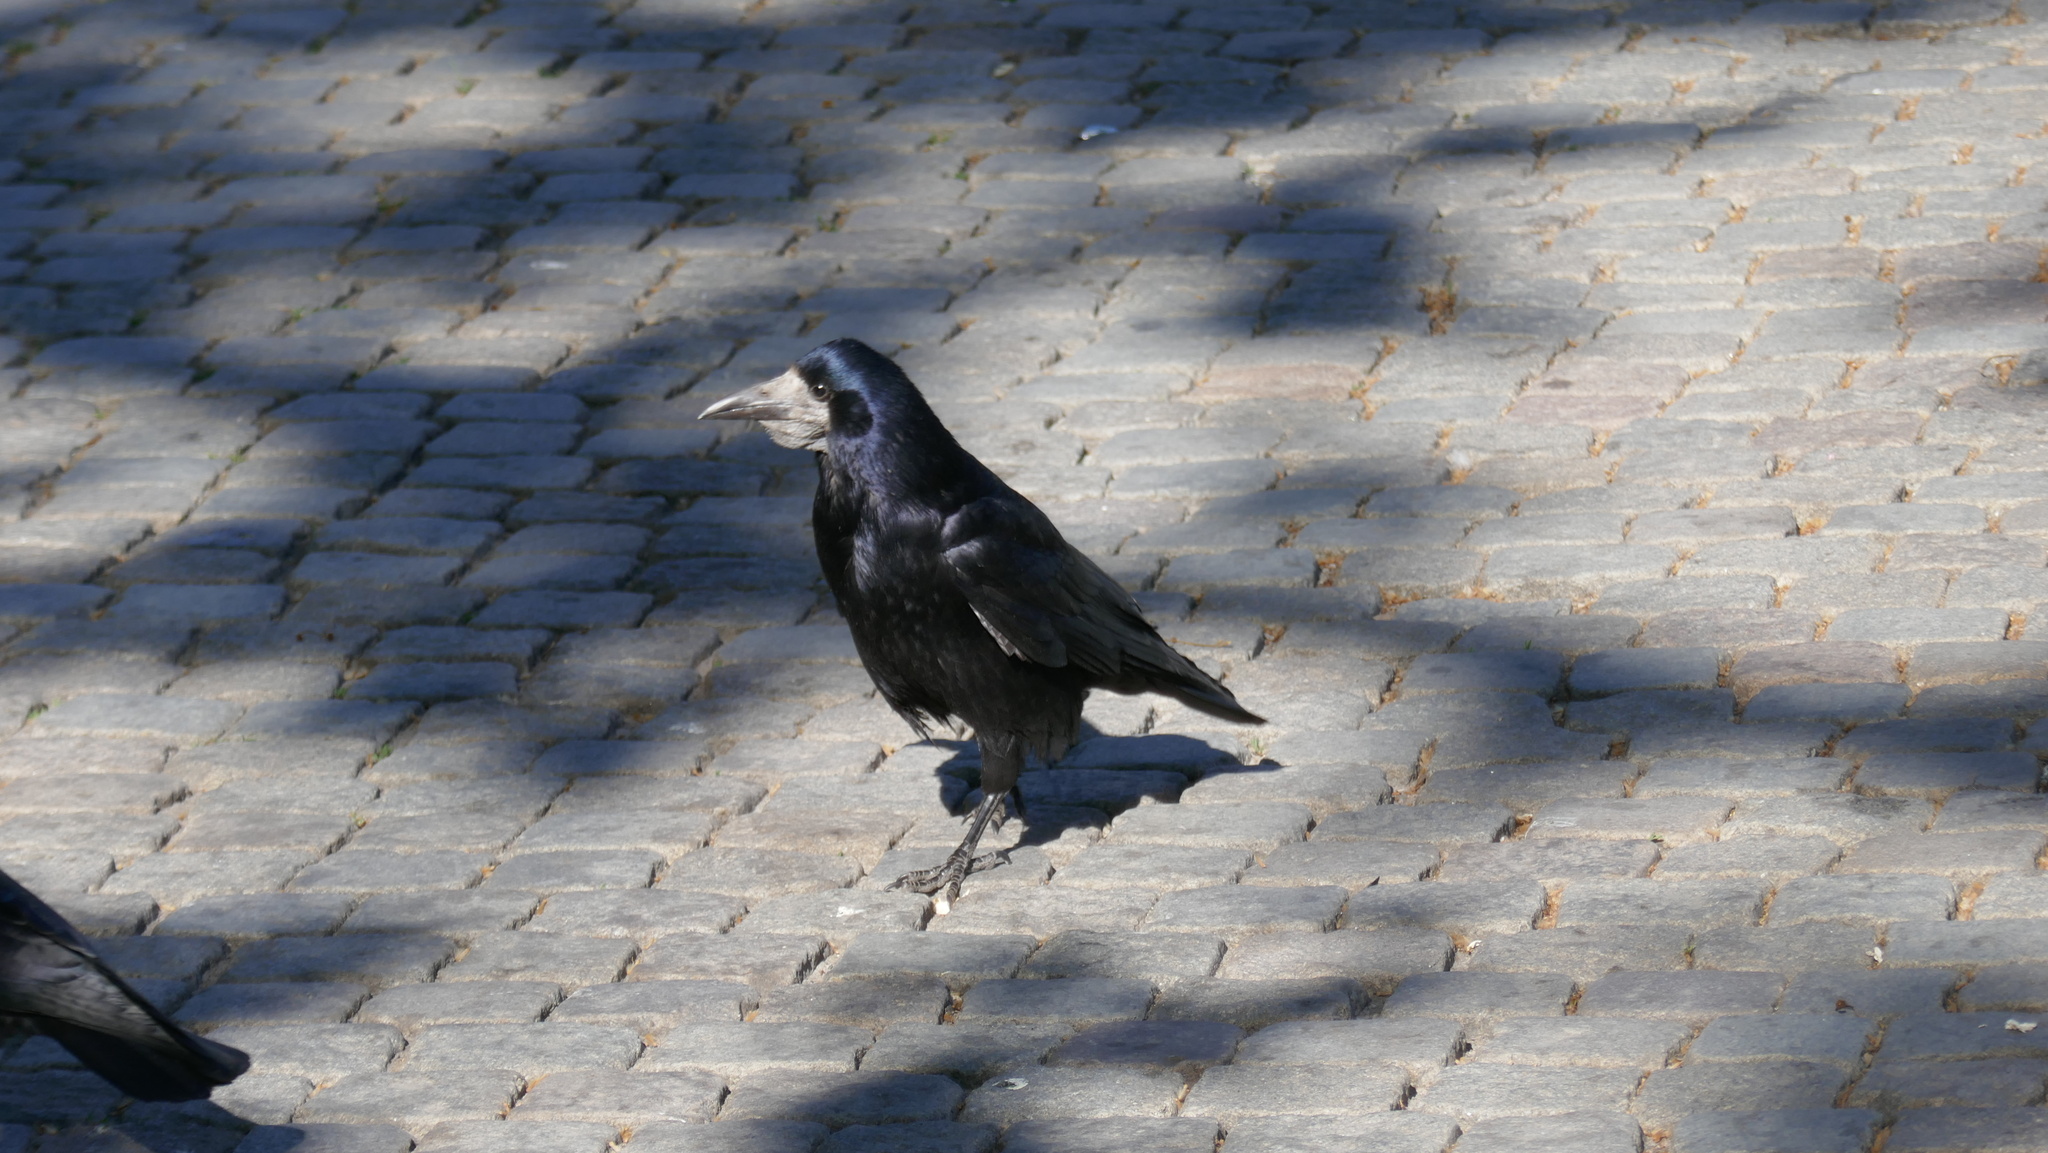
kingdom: Animalia
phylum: Chordata
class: Aves
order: Passeriformes
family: Corvidae
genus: Corvus
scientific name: Corvus frugilegus
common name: Rook
